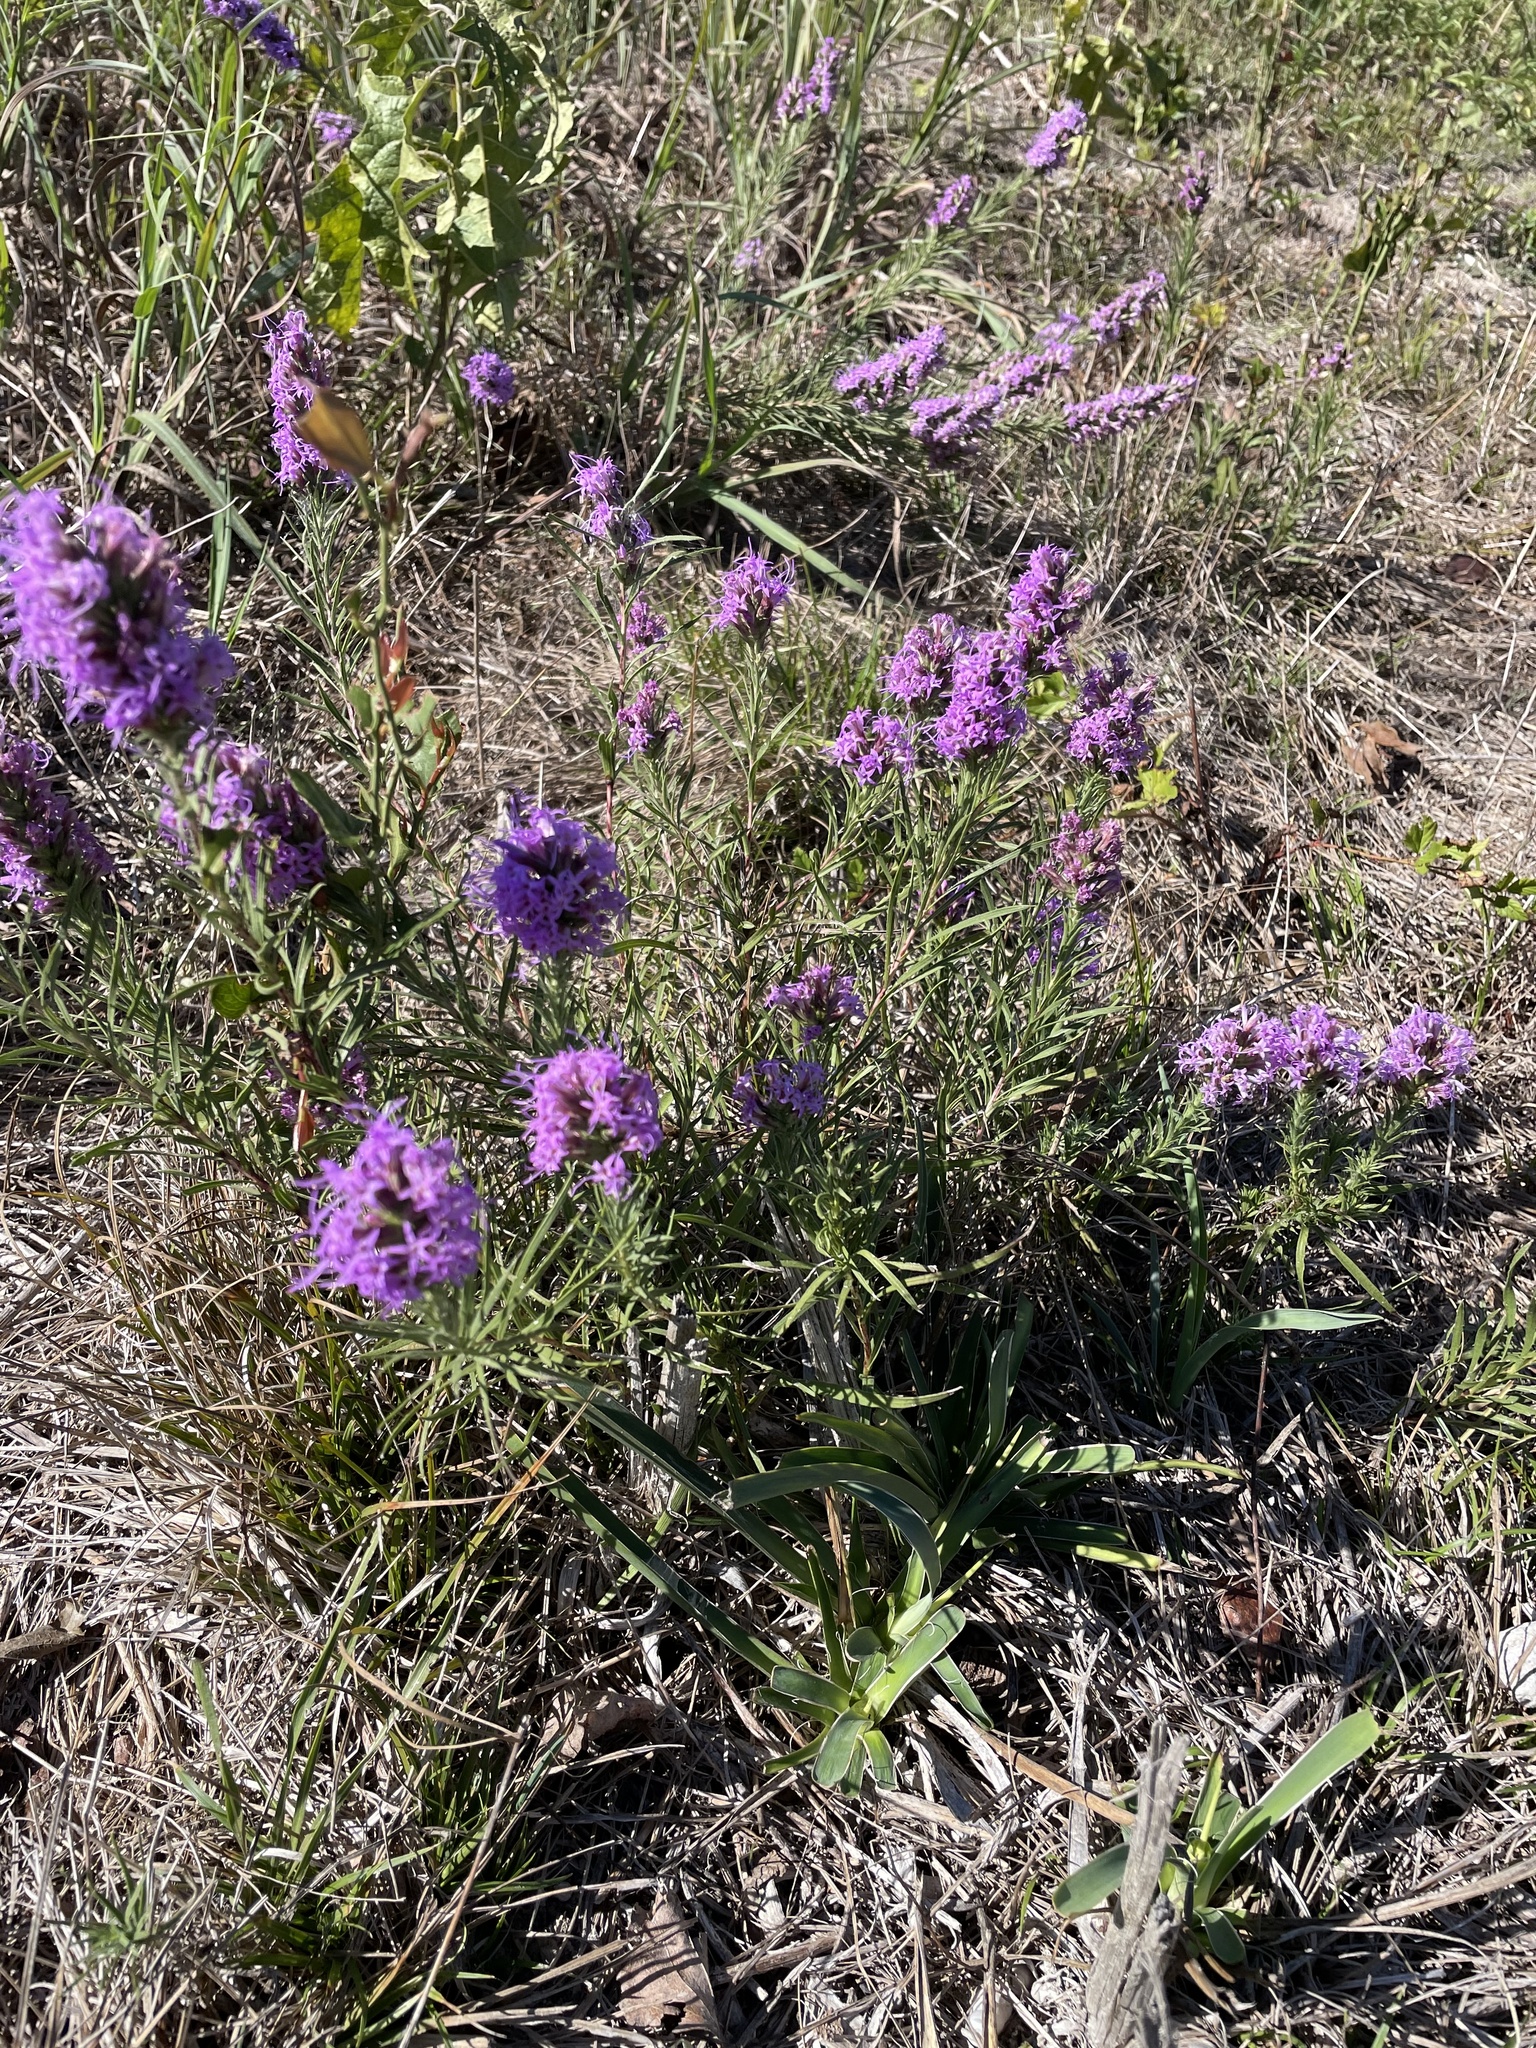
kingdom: Plantae
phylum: Tracheophyta
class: Magnoliopsida
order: Asterales
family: Asteraceae
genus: Liatris
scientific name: Liatris punctata
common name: Dotted gayfeather
